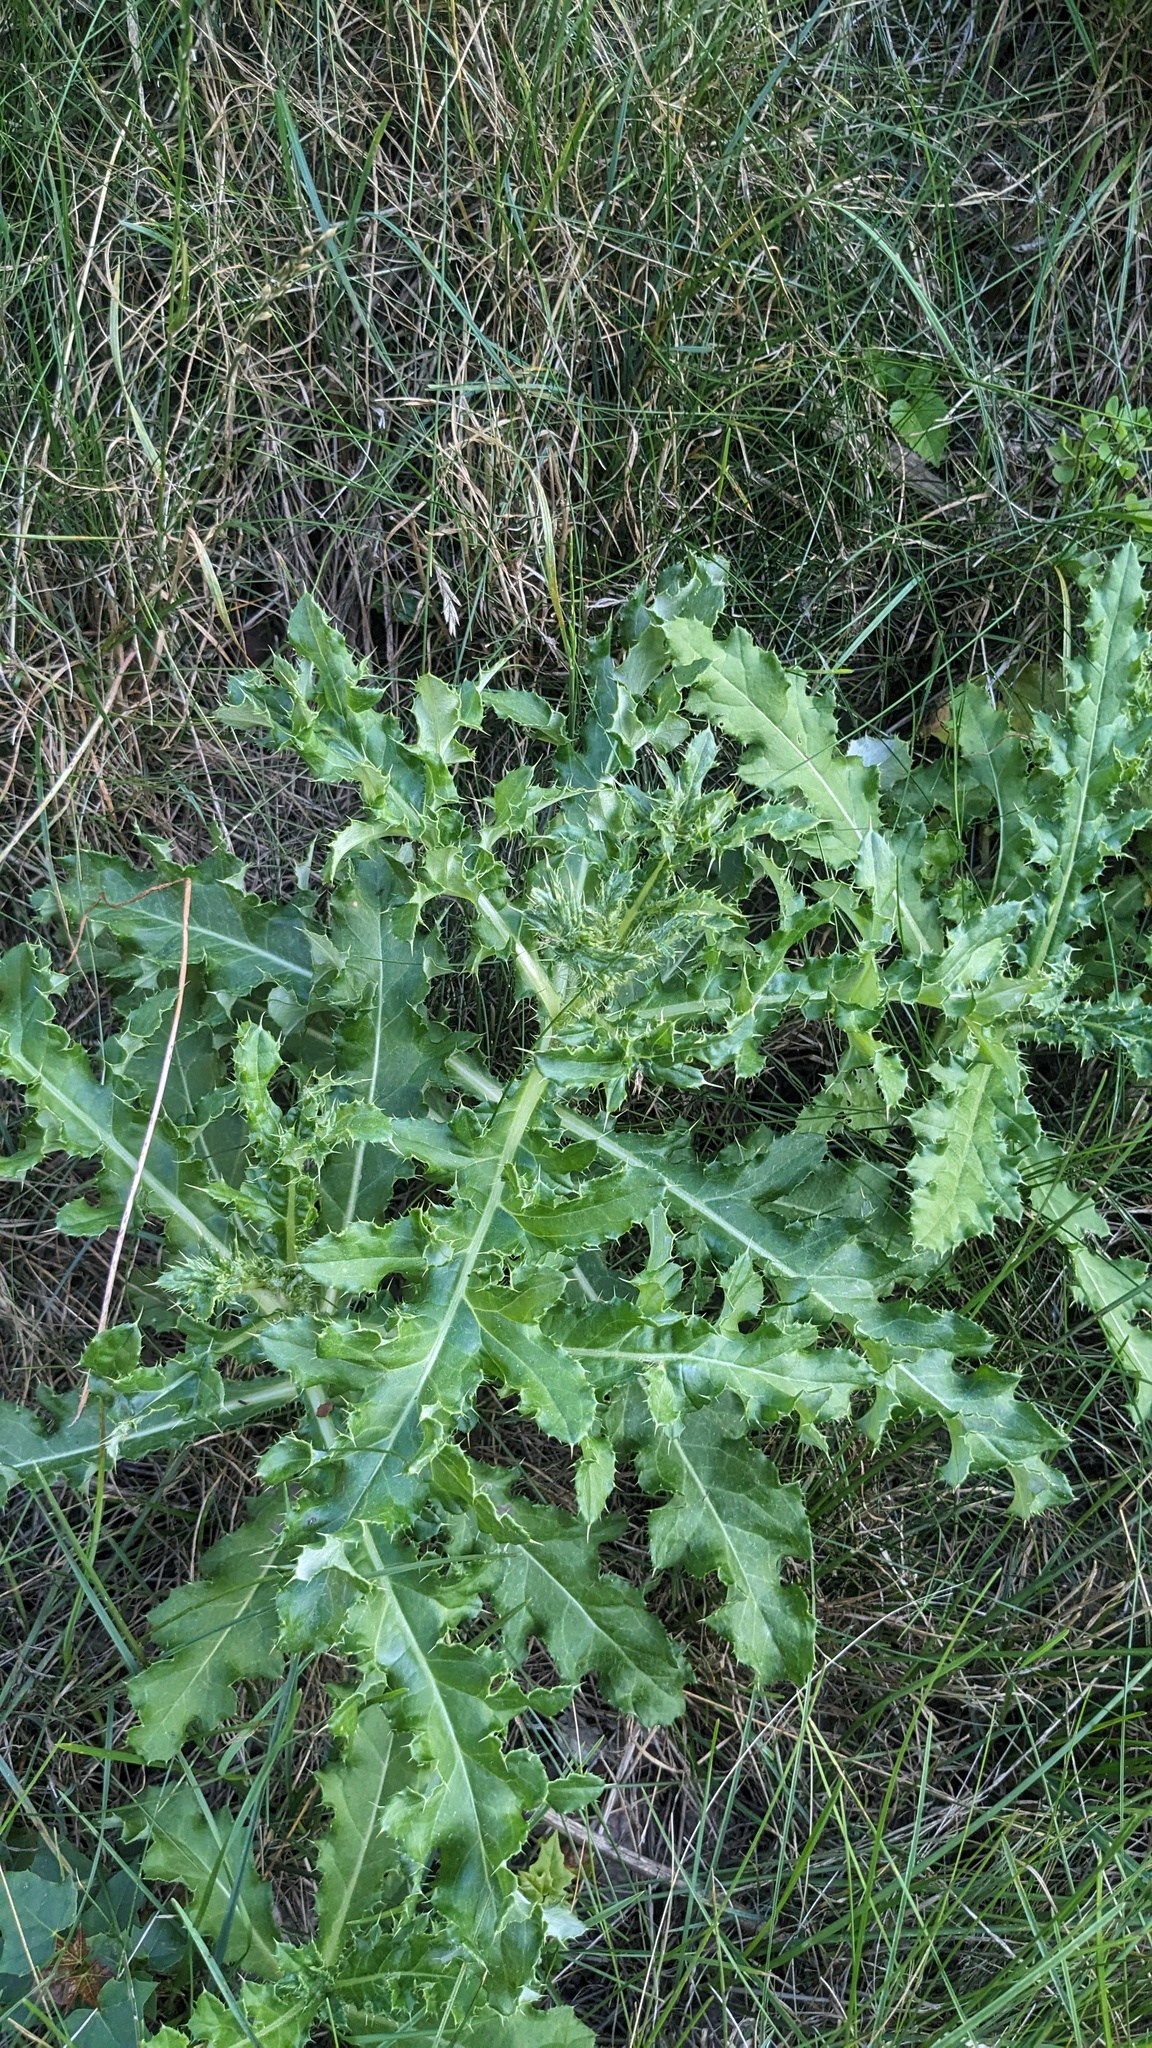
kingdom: Plantae
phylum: Tracheophyta
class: Magnoliopsida
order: Asterales
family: Asteraceae
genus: Cirsium
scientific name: Cirsium arvense
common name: Creeping thistle
